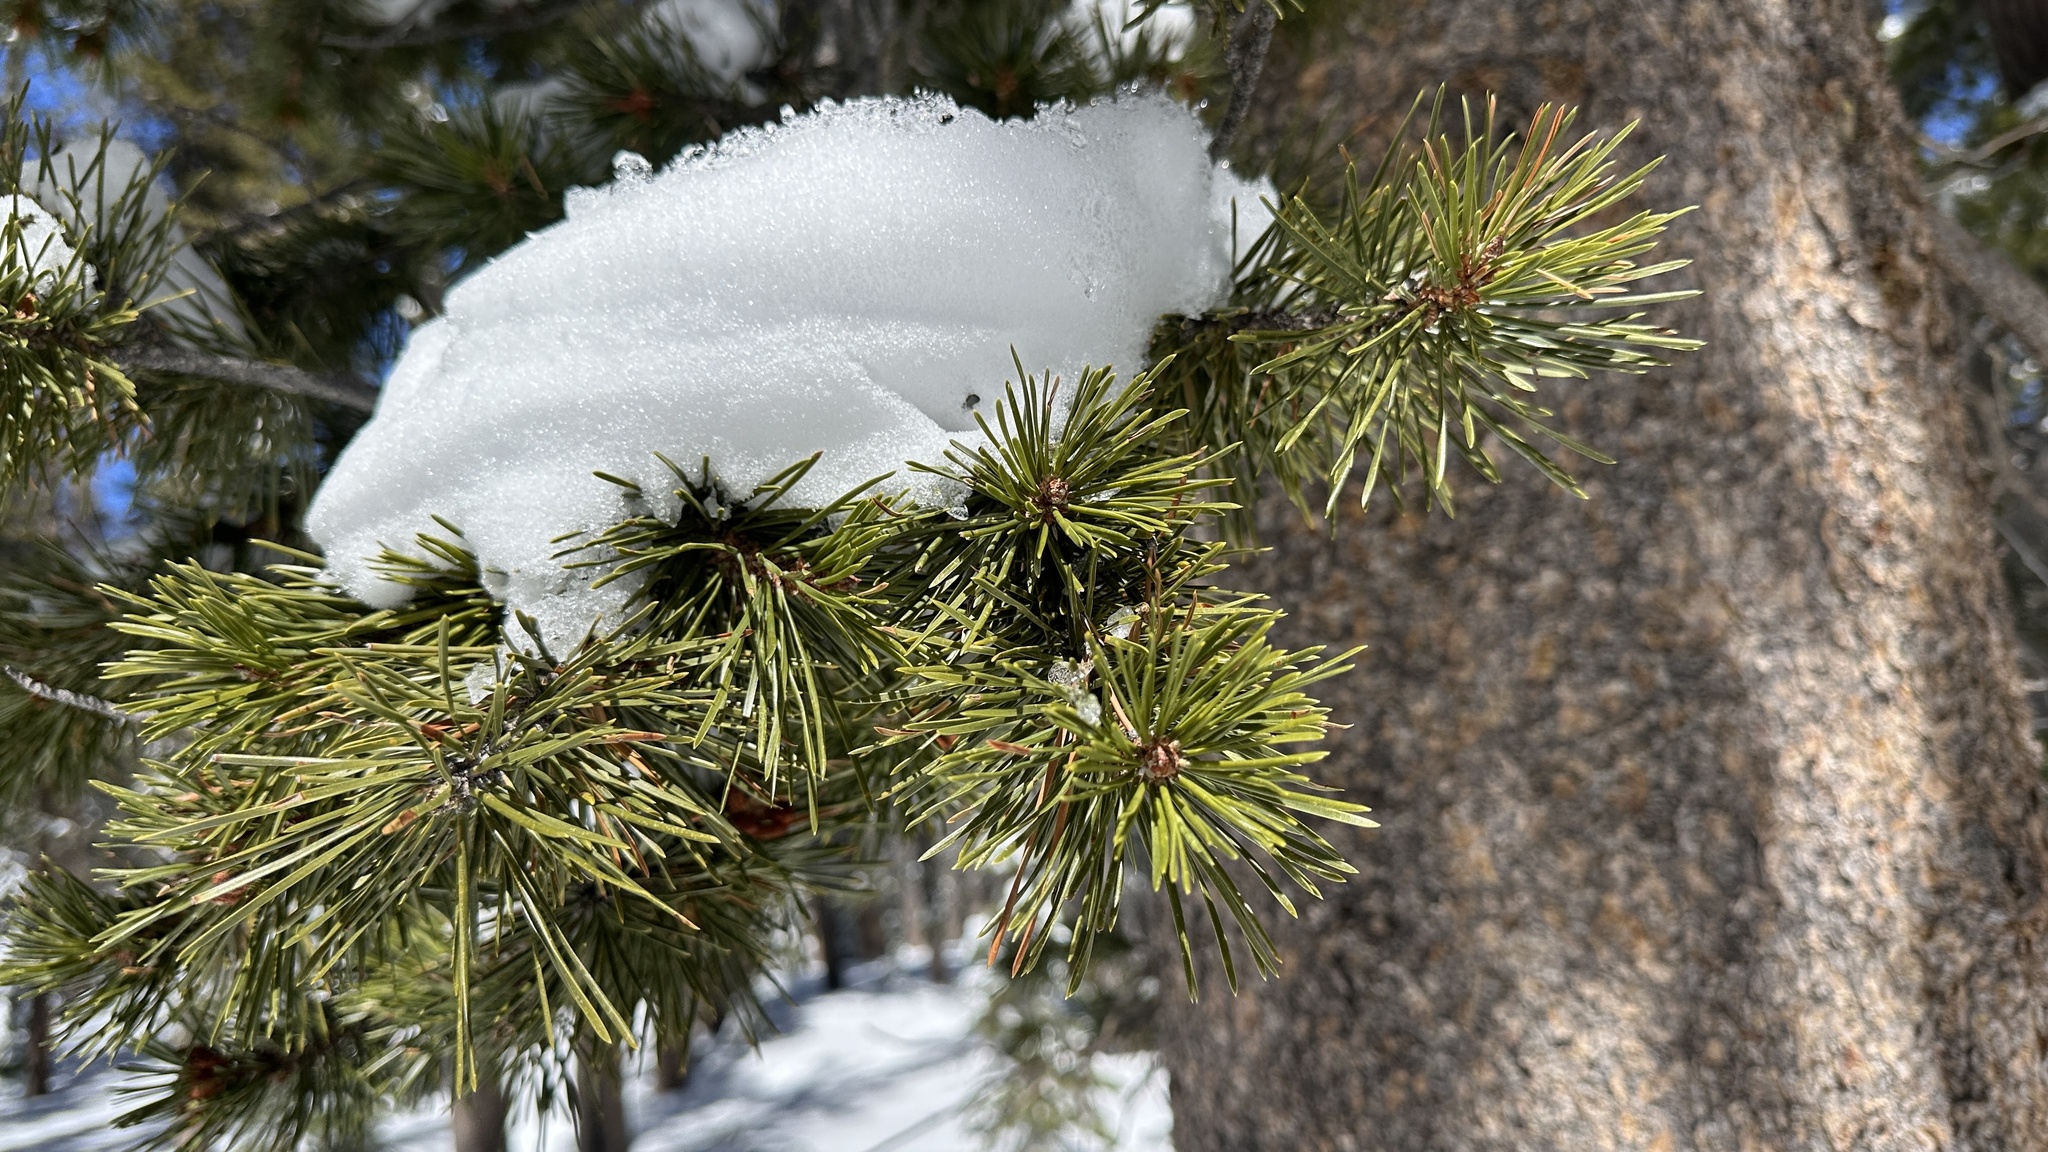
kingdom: Plantae
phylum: Tracheophyta
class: Pinopsida
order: Pinales
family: Pinaceae
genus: Pinus
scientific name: Pinus contorta
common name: Lodgepole pine
